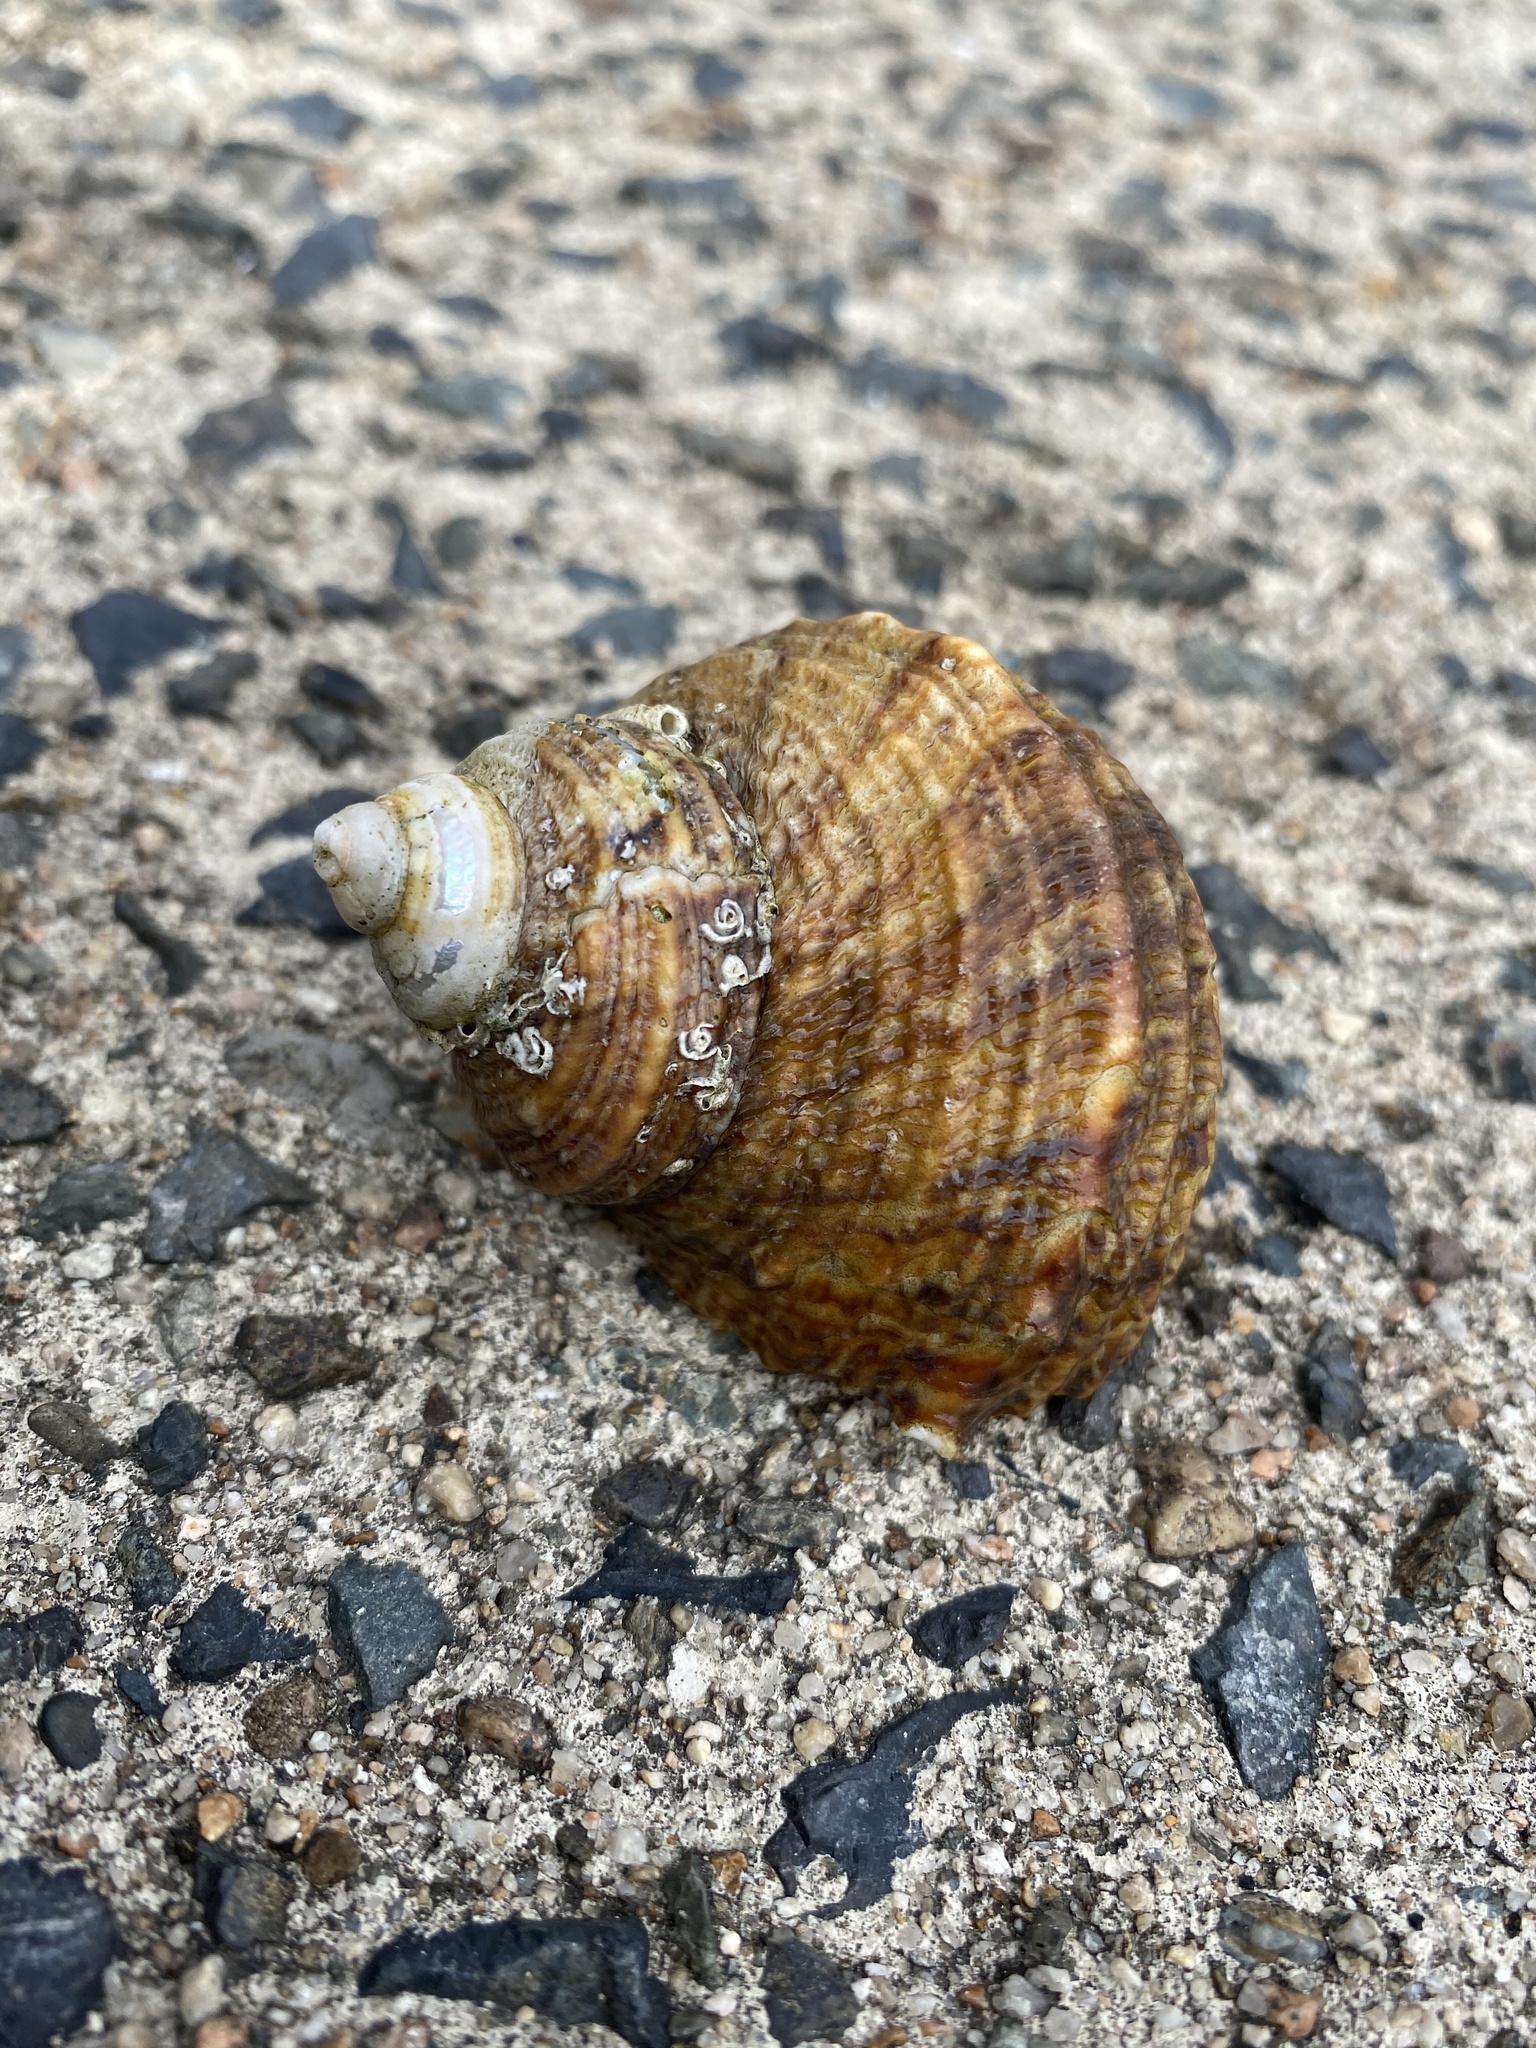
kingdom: Animalia
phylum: Mollusca
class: Gastropoda
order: Trochida
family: Turbinidae
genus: Turbo
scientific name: Turbo sazae
